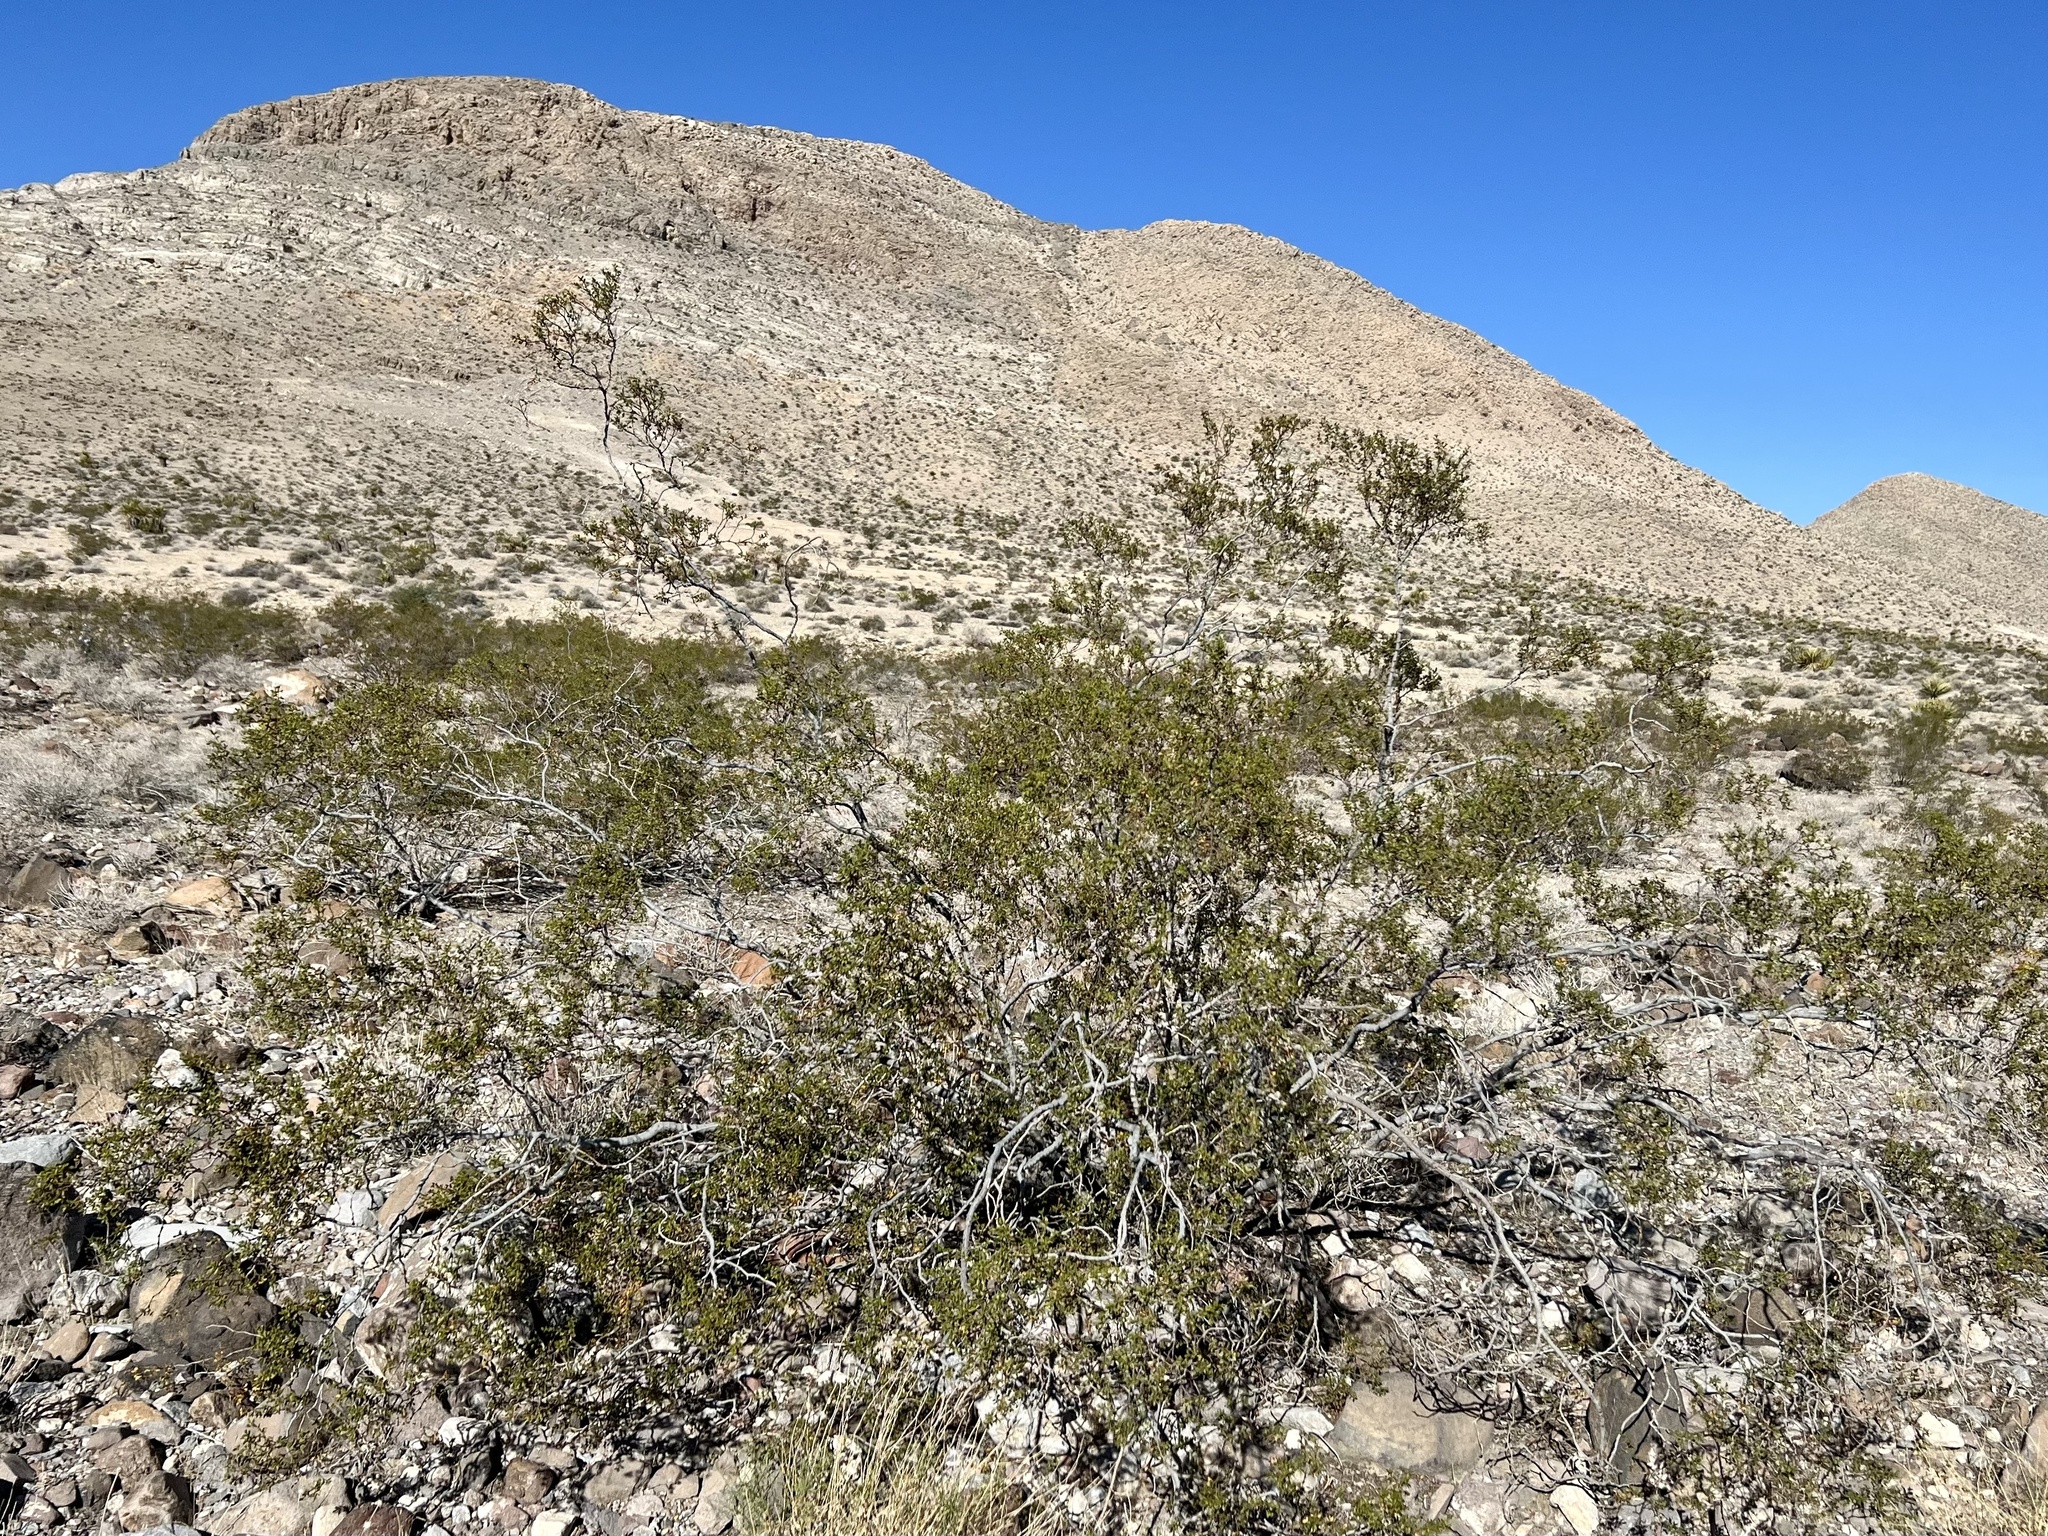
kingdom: Plantae
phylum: Tracheophyta
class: Magnoliopsida
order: Zygophyllales
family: Zygophyllaceae
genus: Larrea
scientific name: Larrea tridentata
